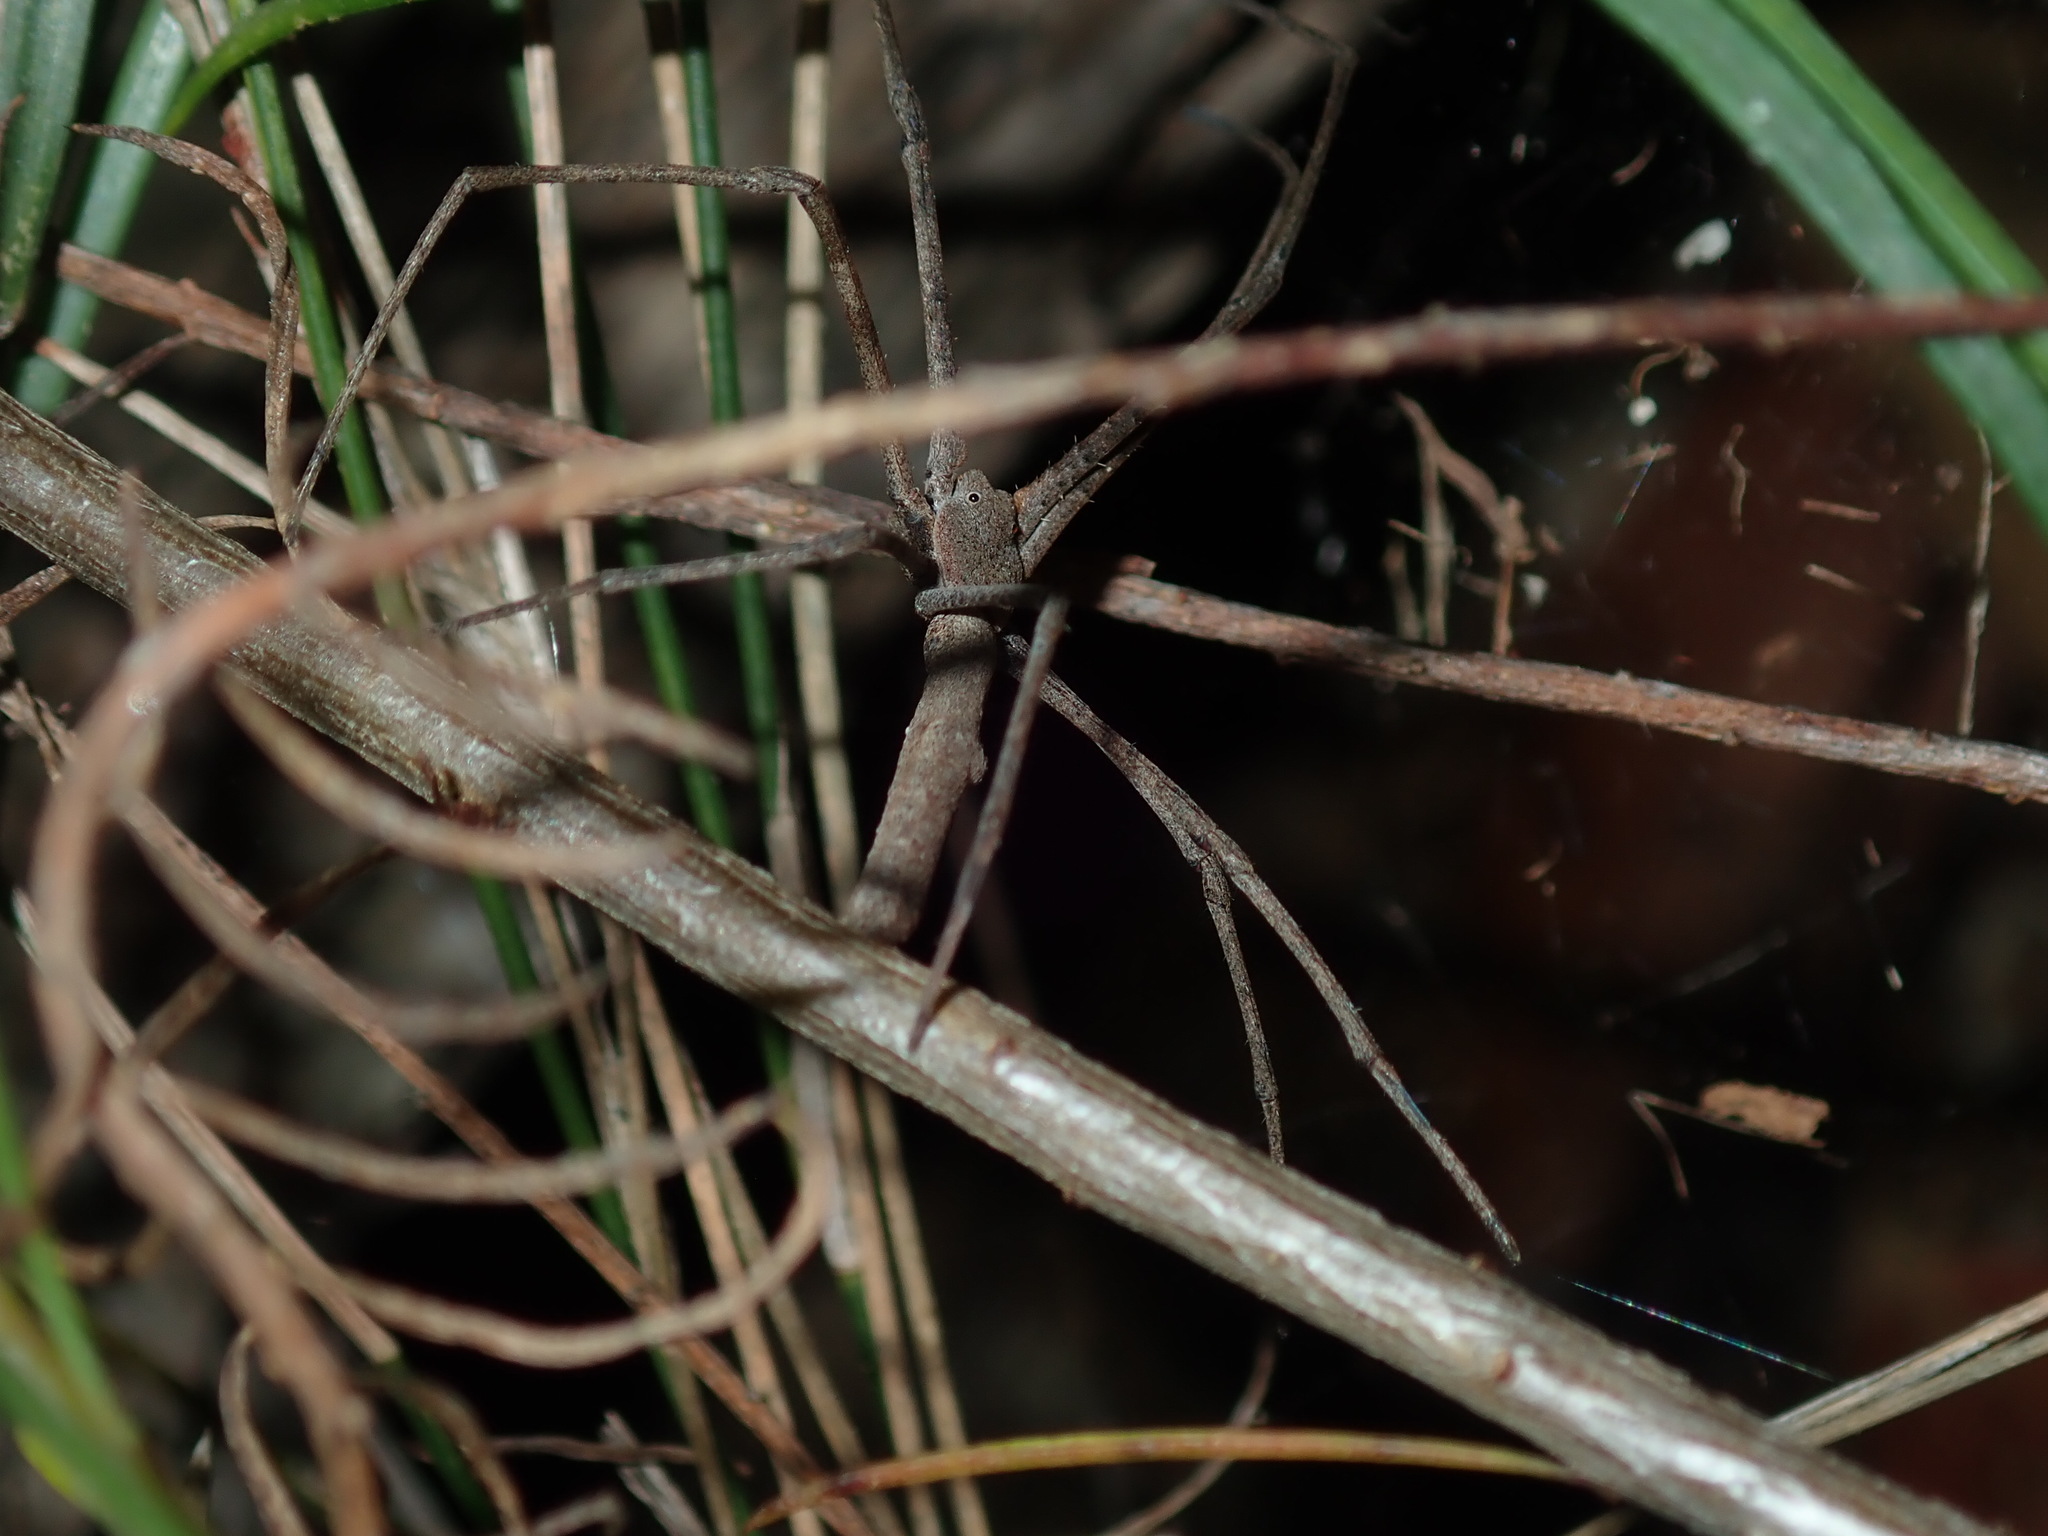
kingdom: Animalia
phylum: Arthropoda
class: Arachnida
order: Araneae
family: Deinopidae
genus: Deinopis
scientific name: Deinopis subrufa
